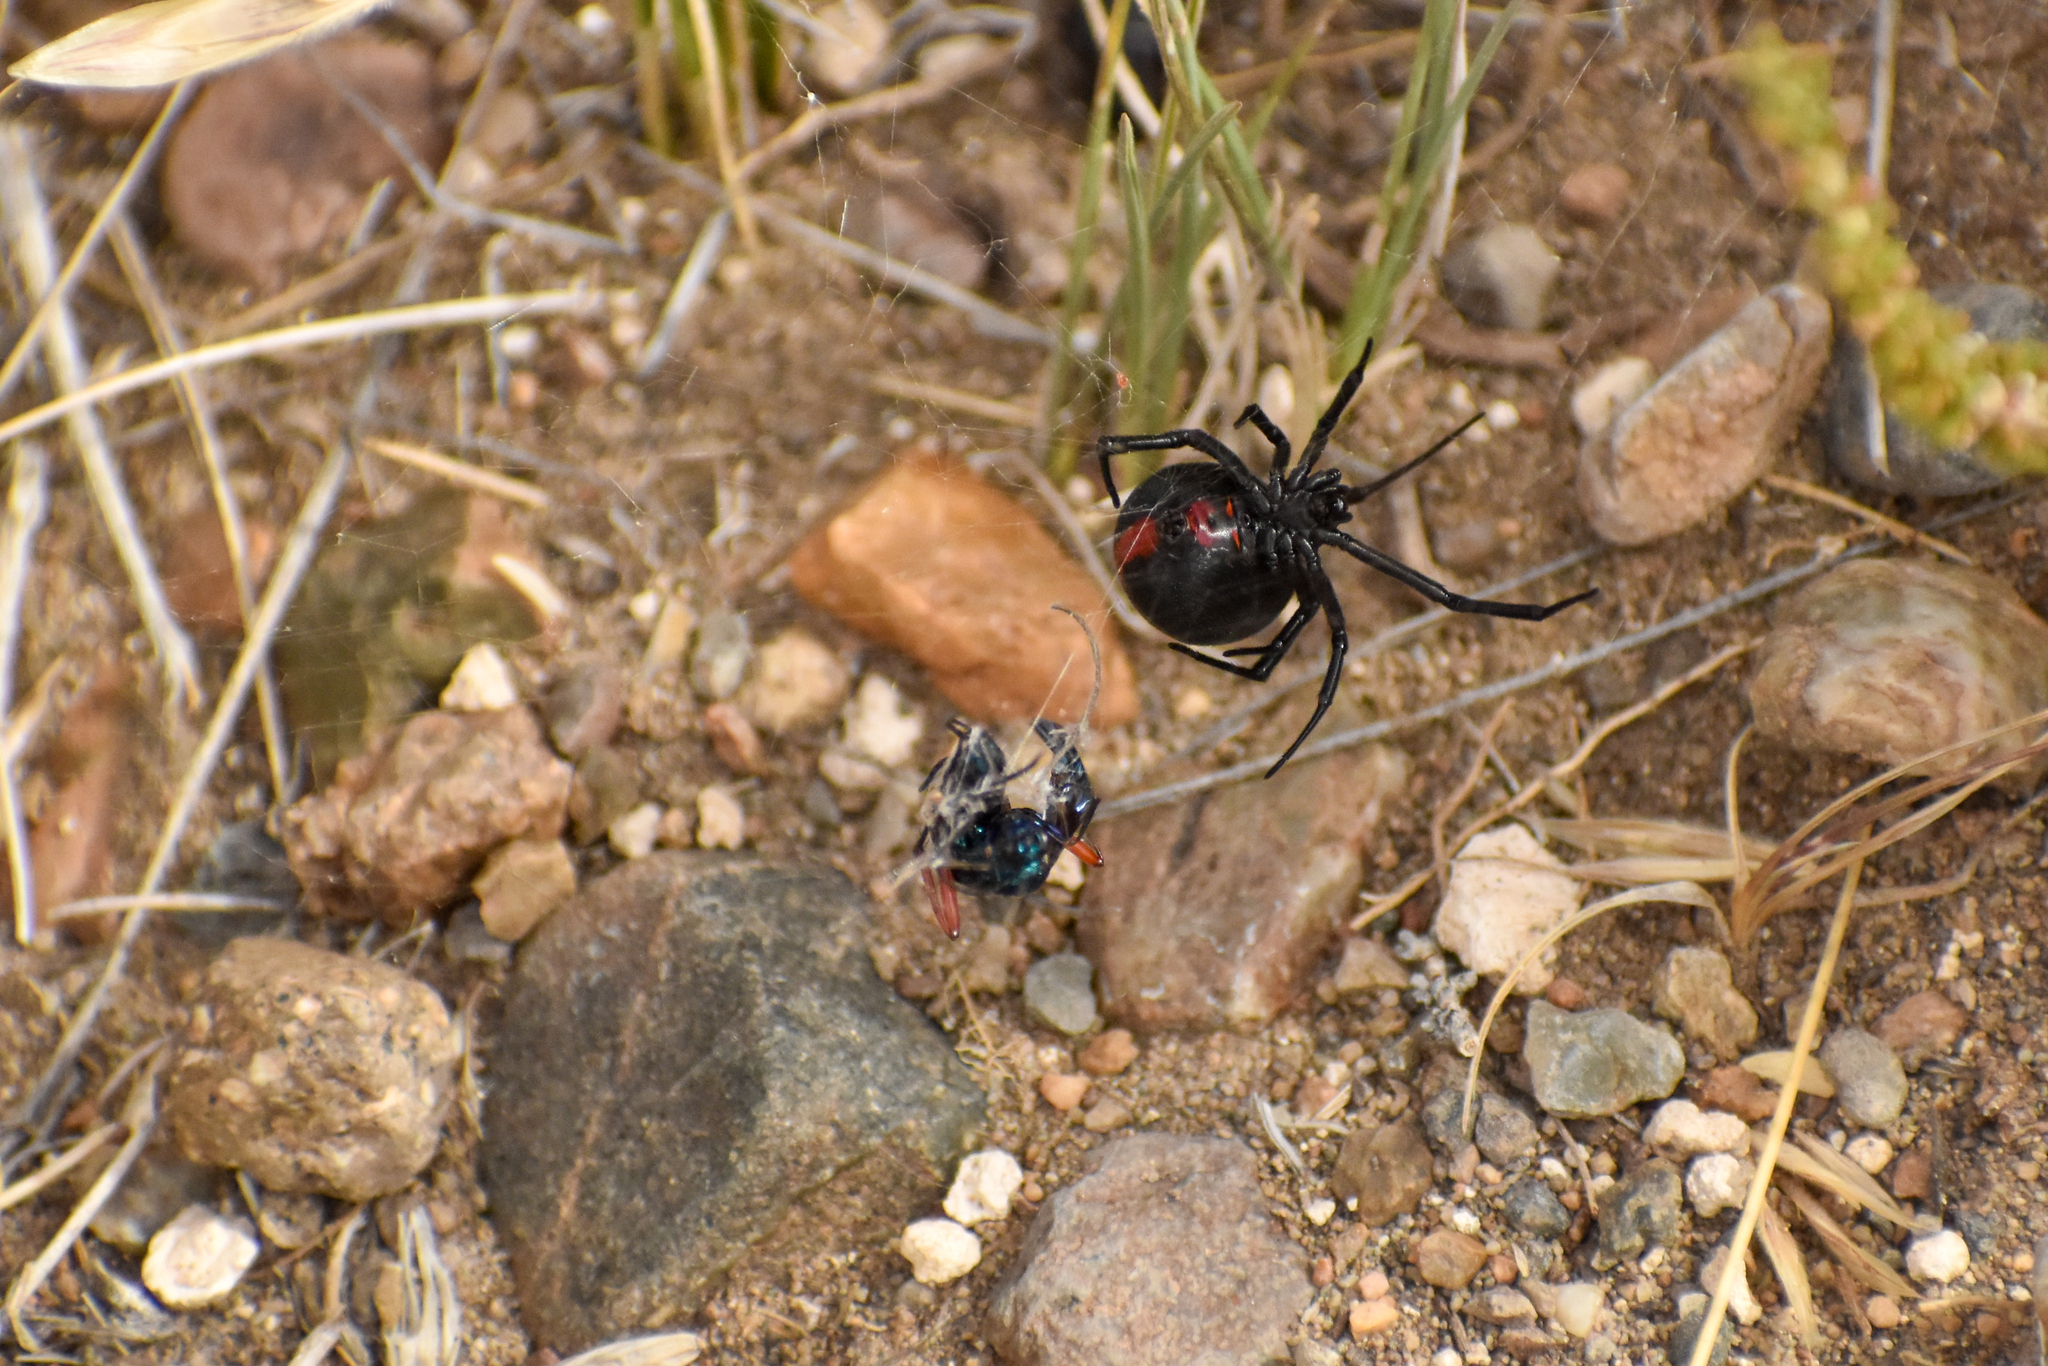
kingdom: Animalia
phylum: Arthropoda
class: Arachnida
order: Araneae
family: Theridiidae
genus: Latrodectus
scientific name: Latrodectus mirabilis
